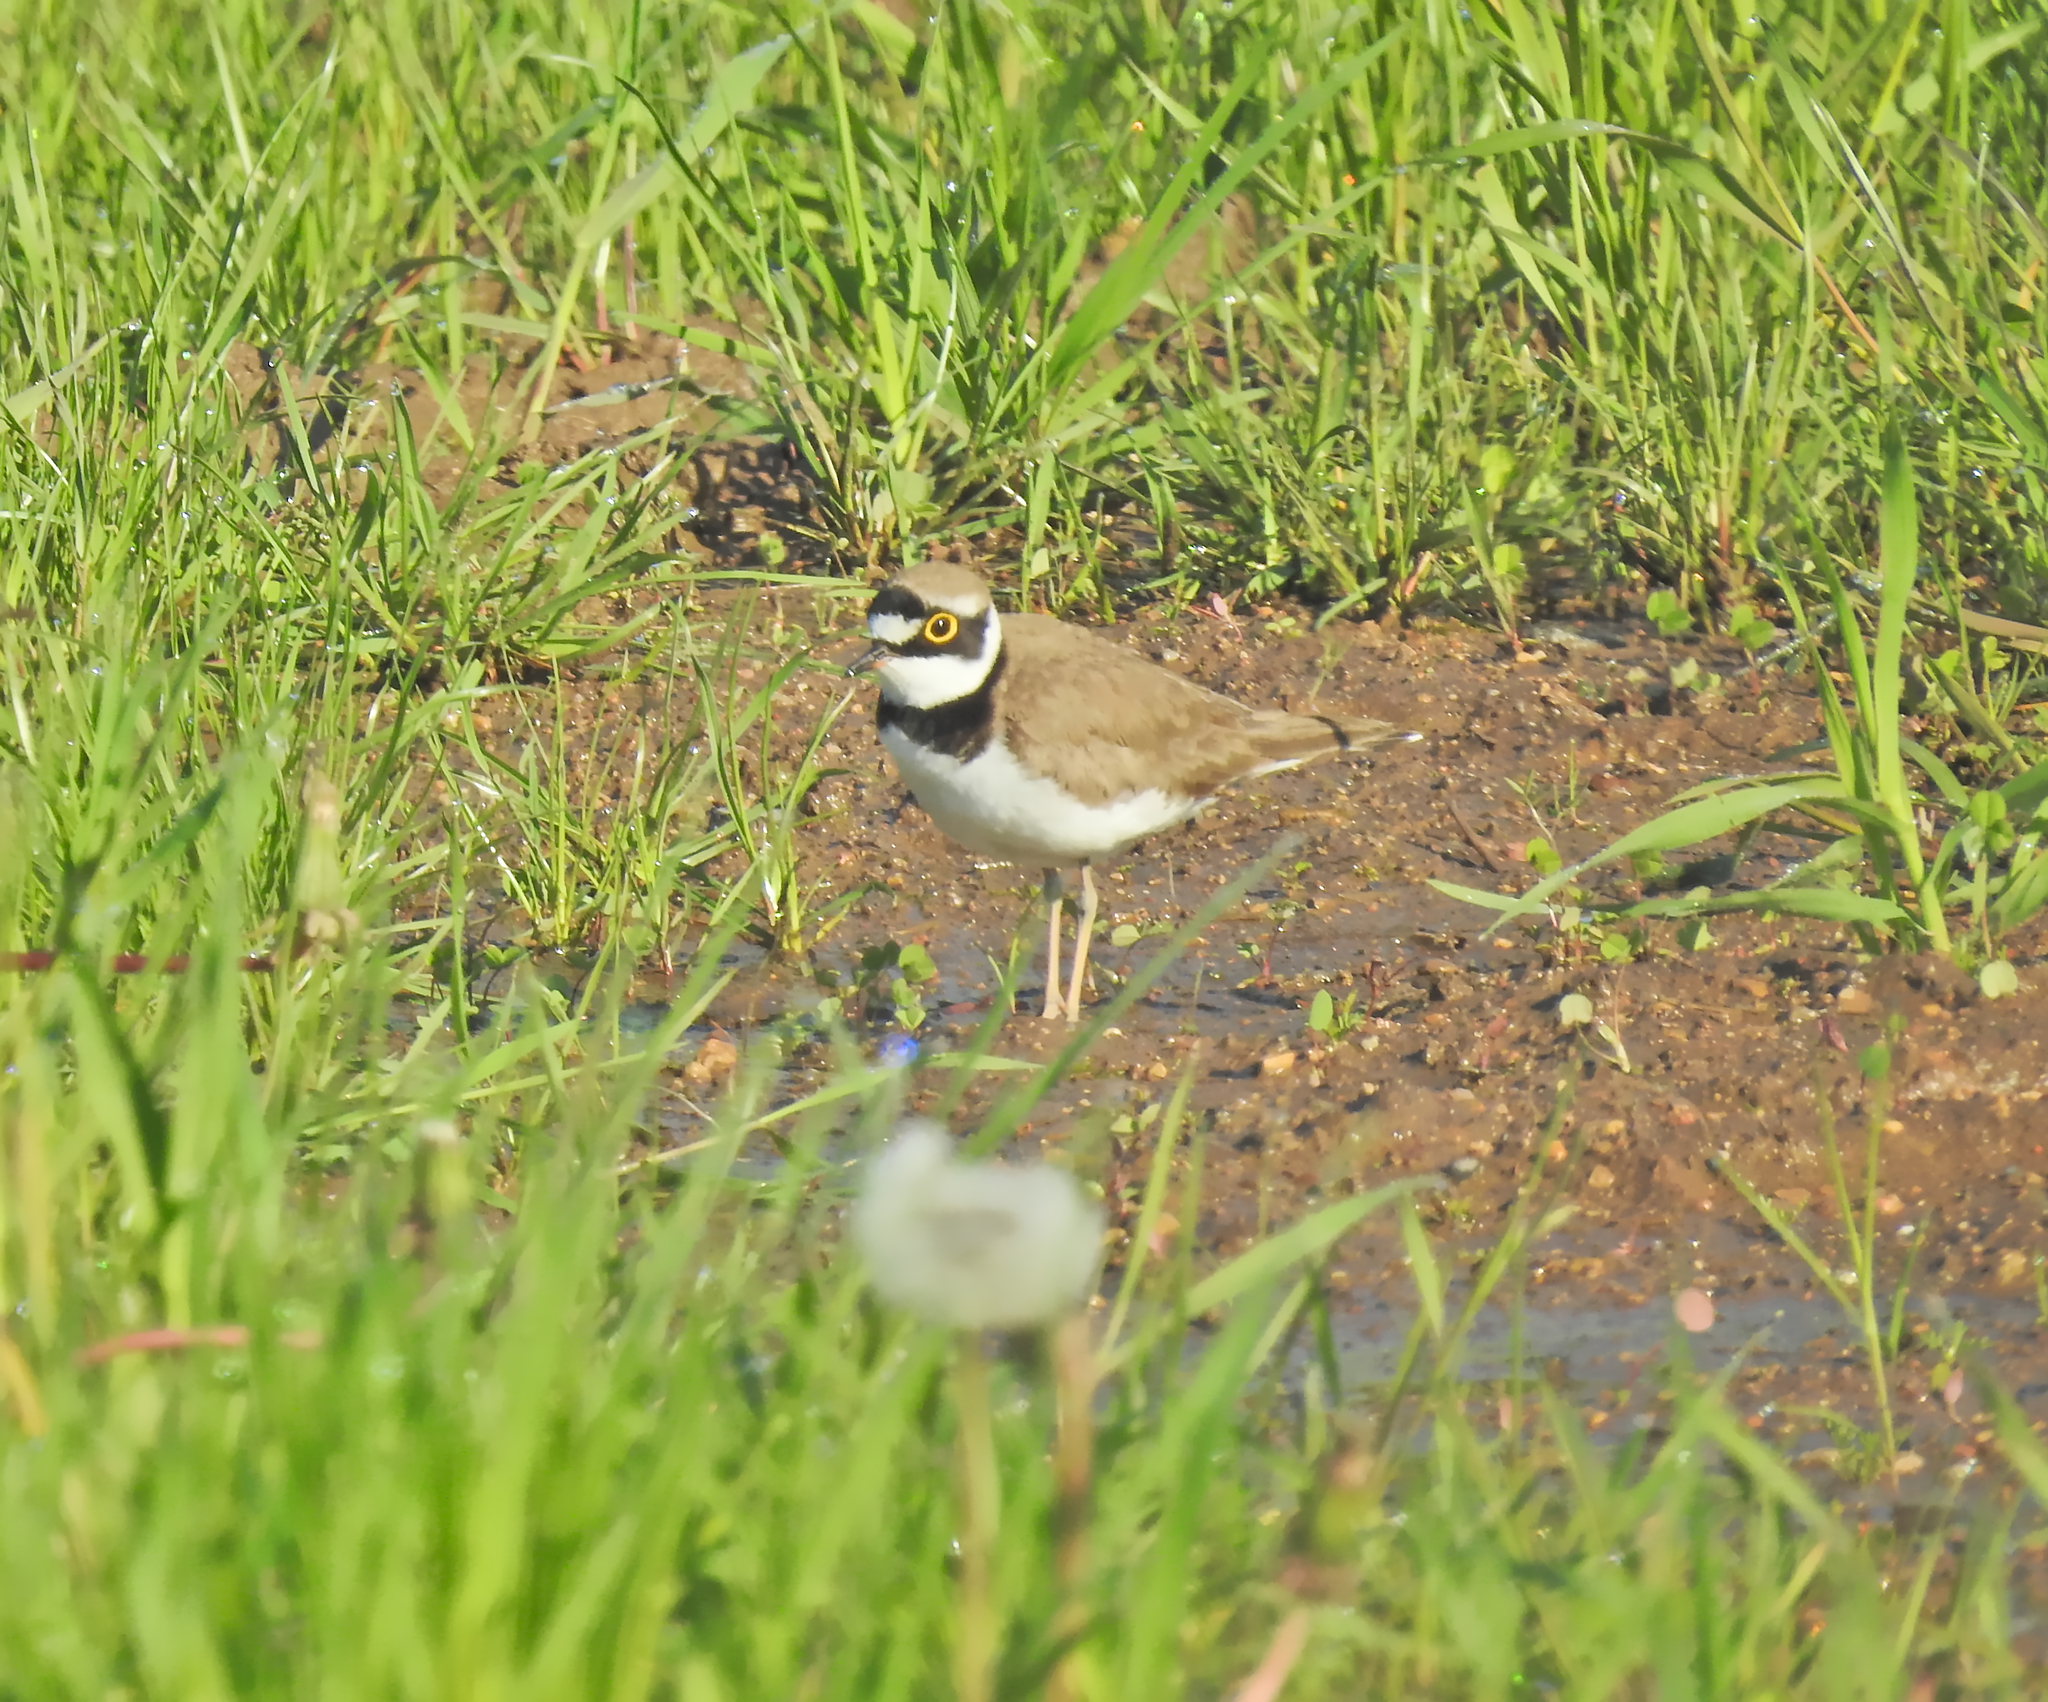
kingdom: Animalia
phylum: Chordata
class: Aves
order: Charadriiformes
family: Charadriidae
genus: Charadrius
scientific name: Charadrius dubius
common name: Little ringed plover
